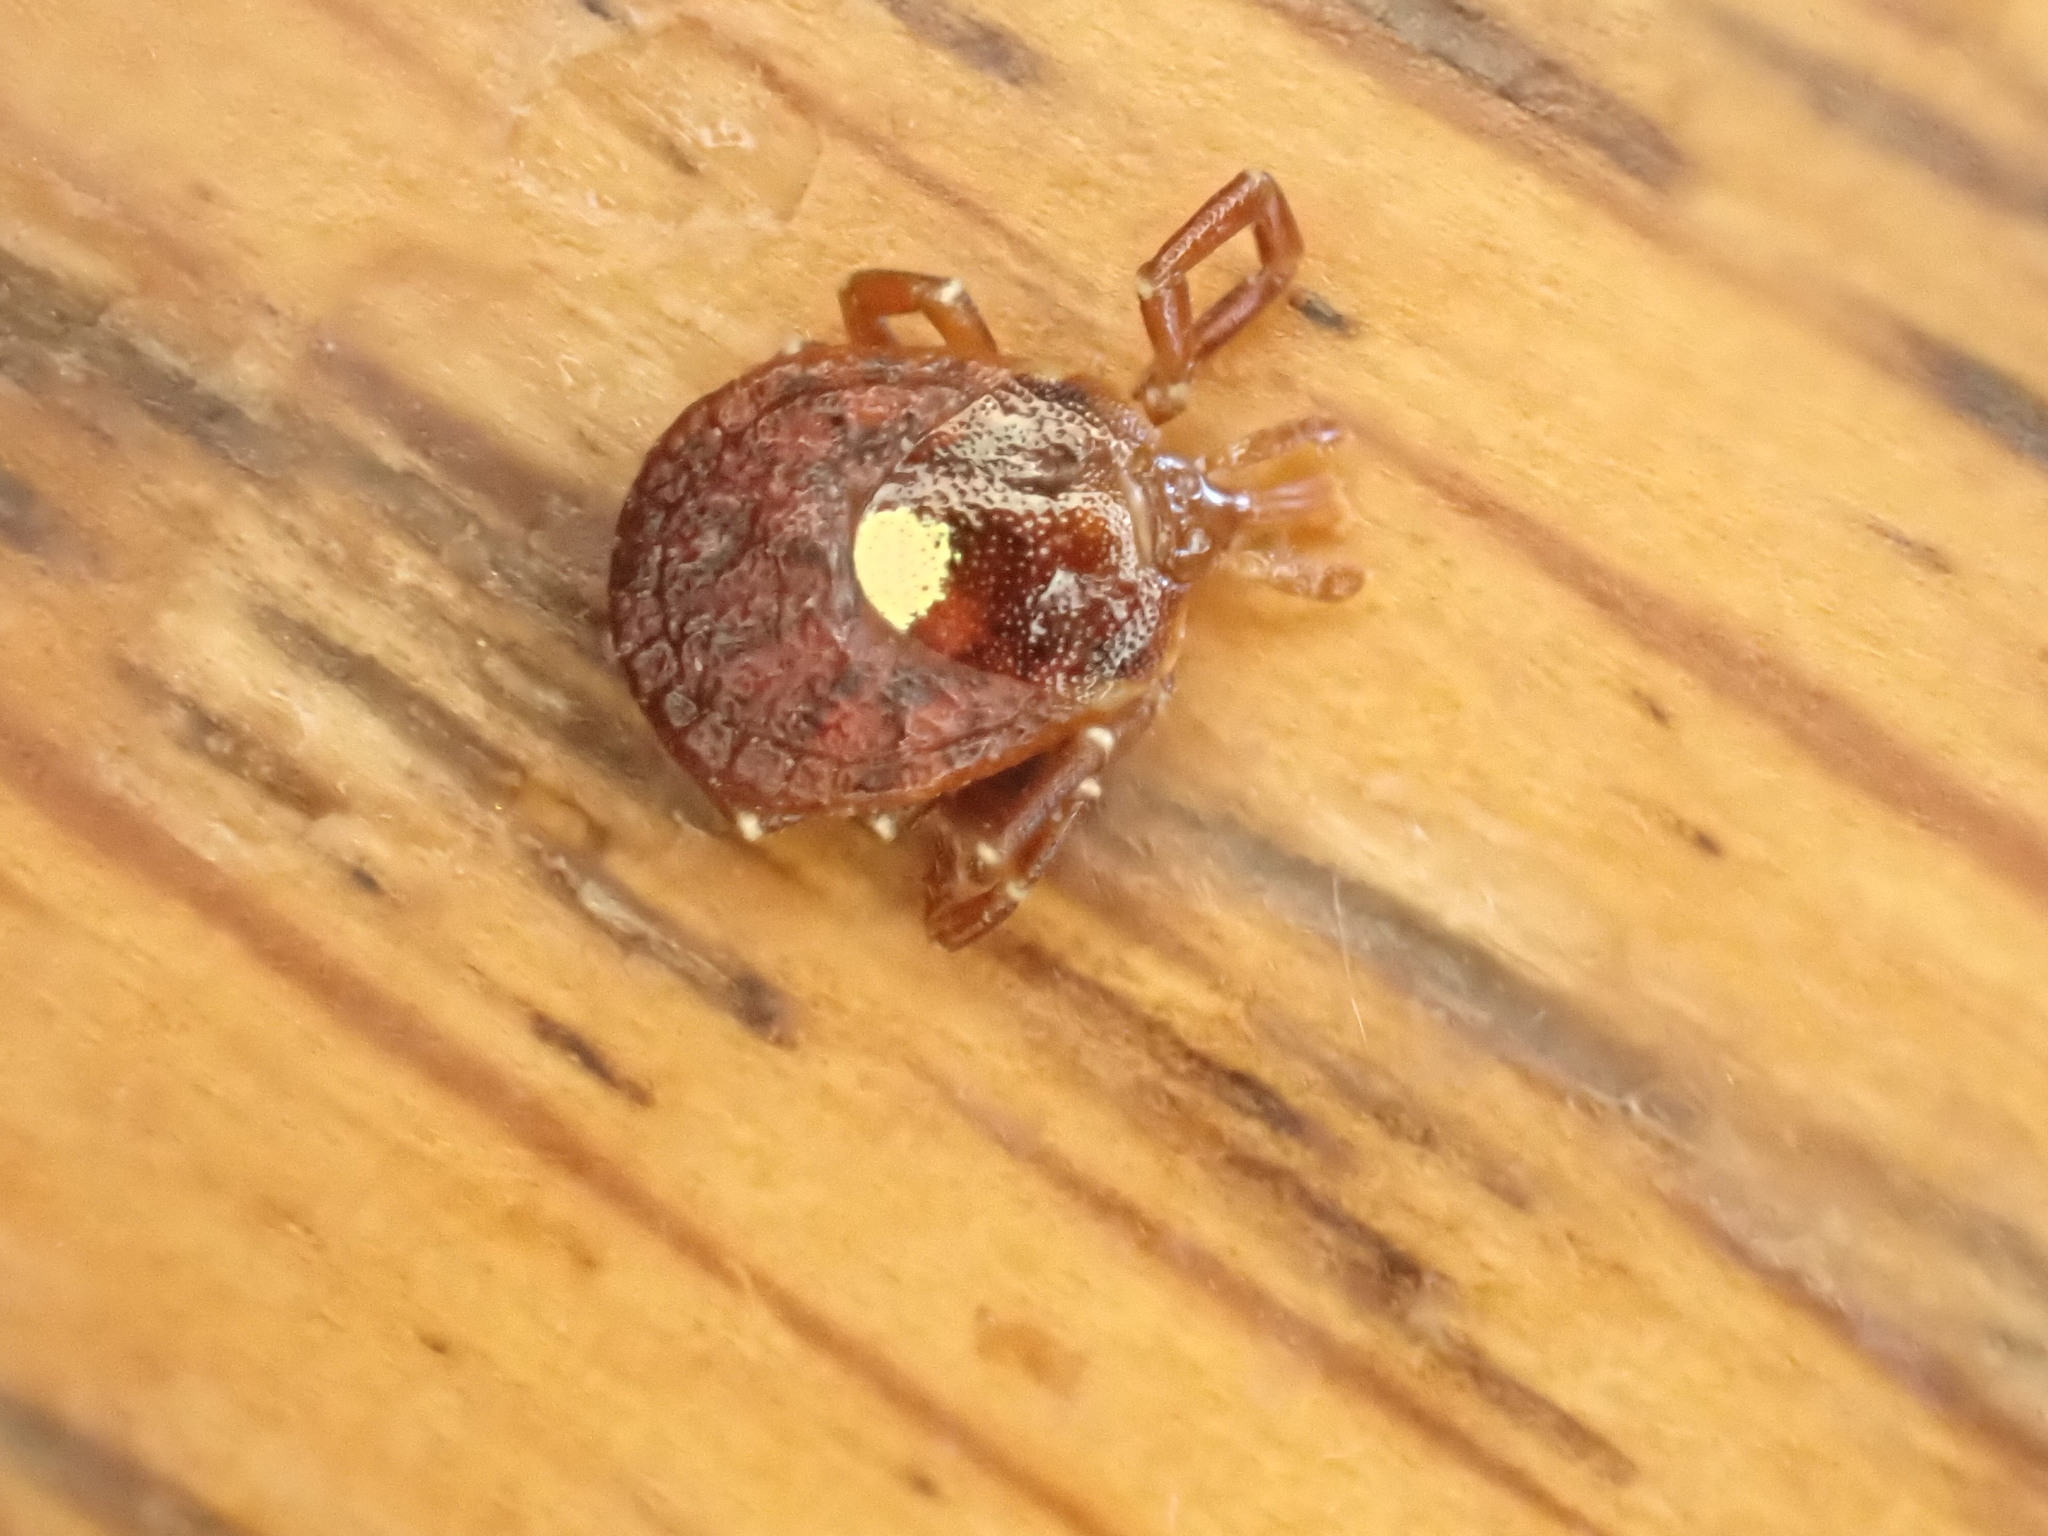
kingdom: Animalia
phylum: Arthropoda
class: Arachnida
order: Ixodida
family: Ixodidae
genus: Amblyomma
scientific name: Amblyomma americanum
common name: Lone star tick
